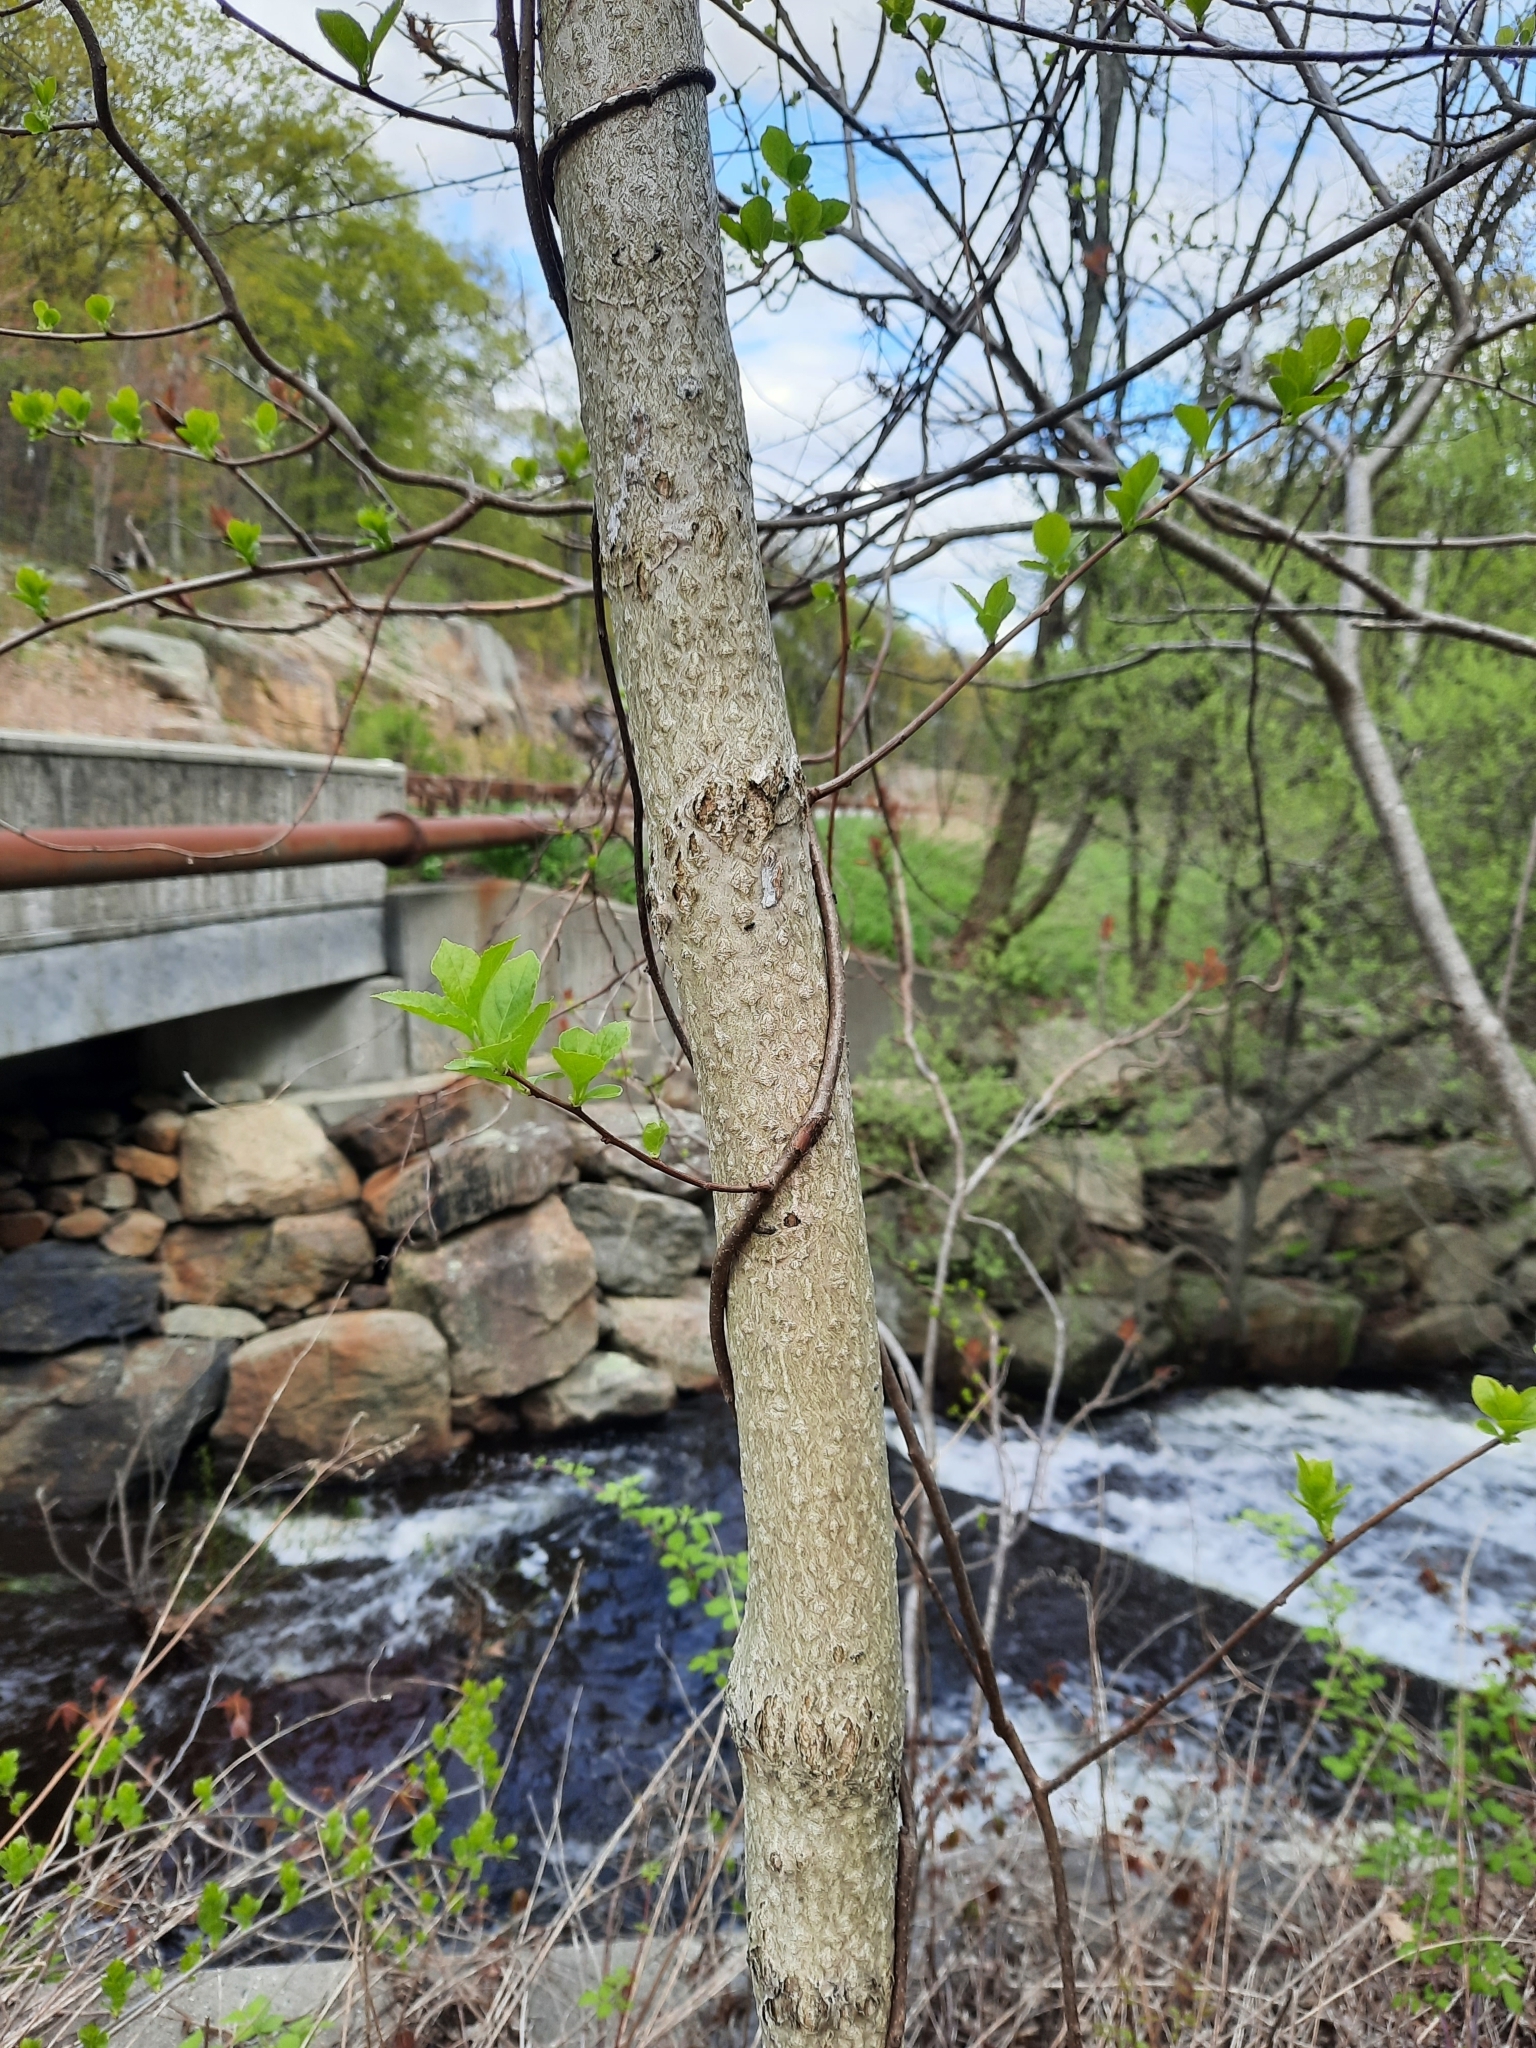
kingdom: Plantae
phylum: Tracheophyta
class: Magnoliopsida
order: Sapindales
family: Simaroubaceae
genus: Ailanthus
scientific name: Ailanthus altissima
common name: Tree-of-heaven
